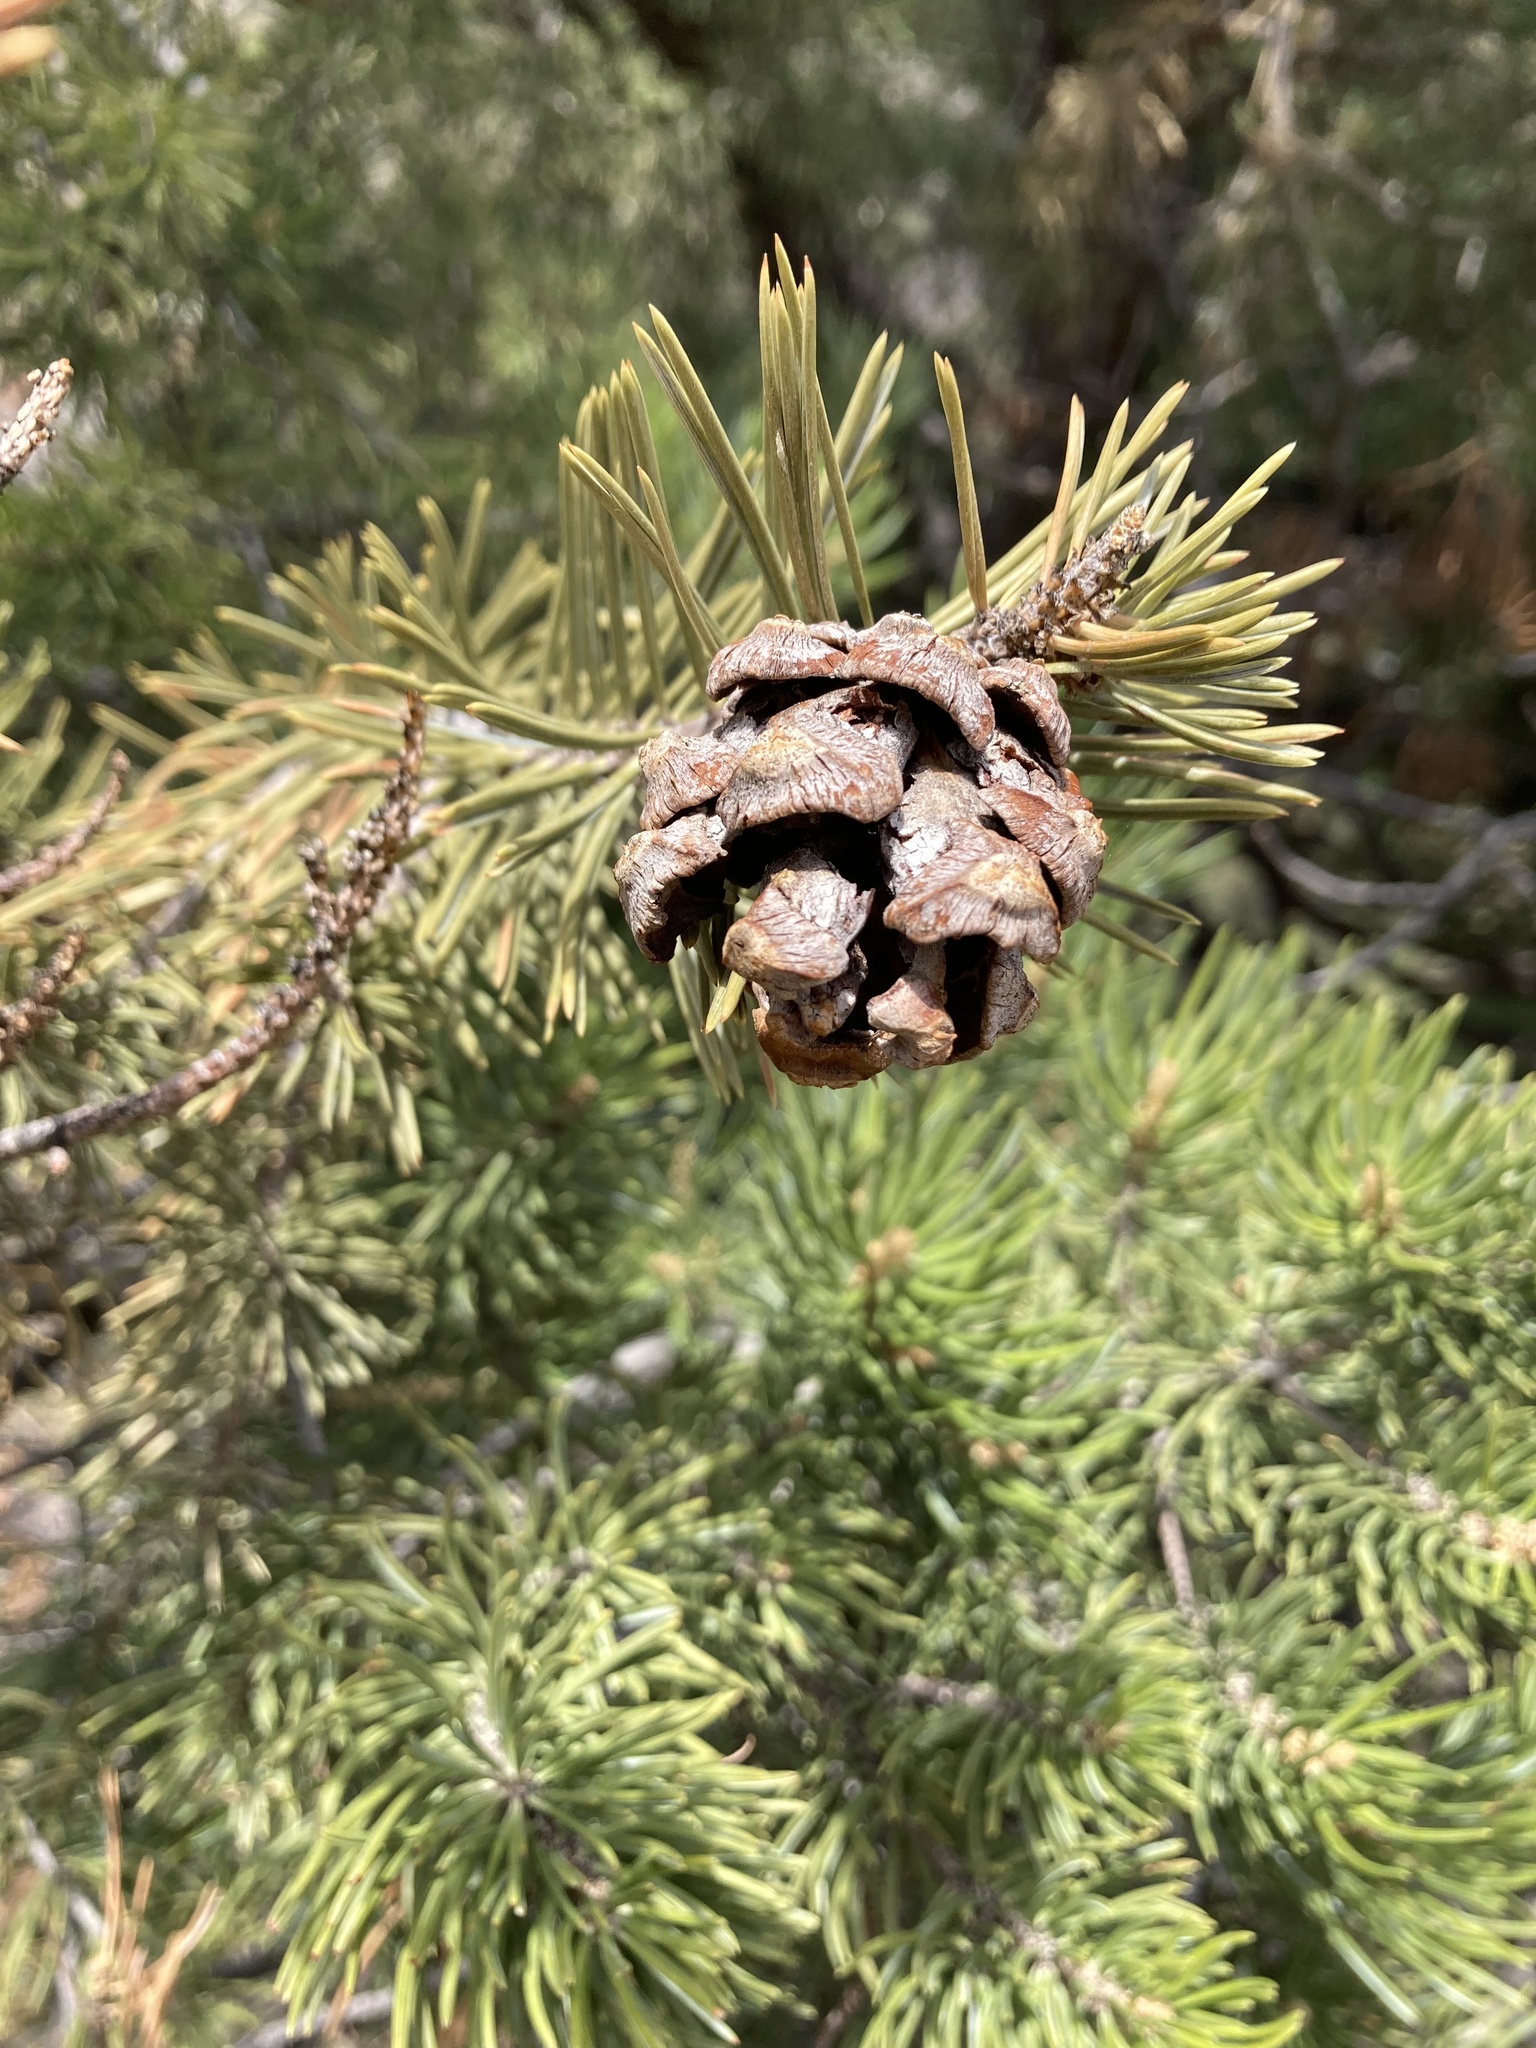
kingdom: Plantae
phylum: Tracheophyta
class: Pinopsida
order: Pinales
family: Pinaceae
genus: Pinus
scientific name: Pinus edulis
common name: Colorado pinyon
